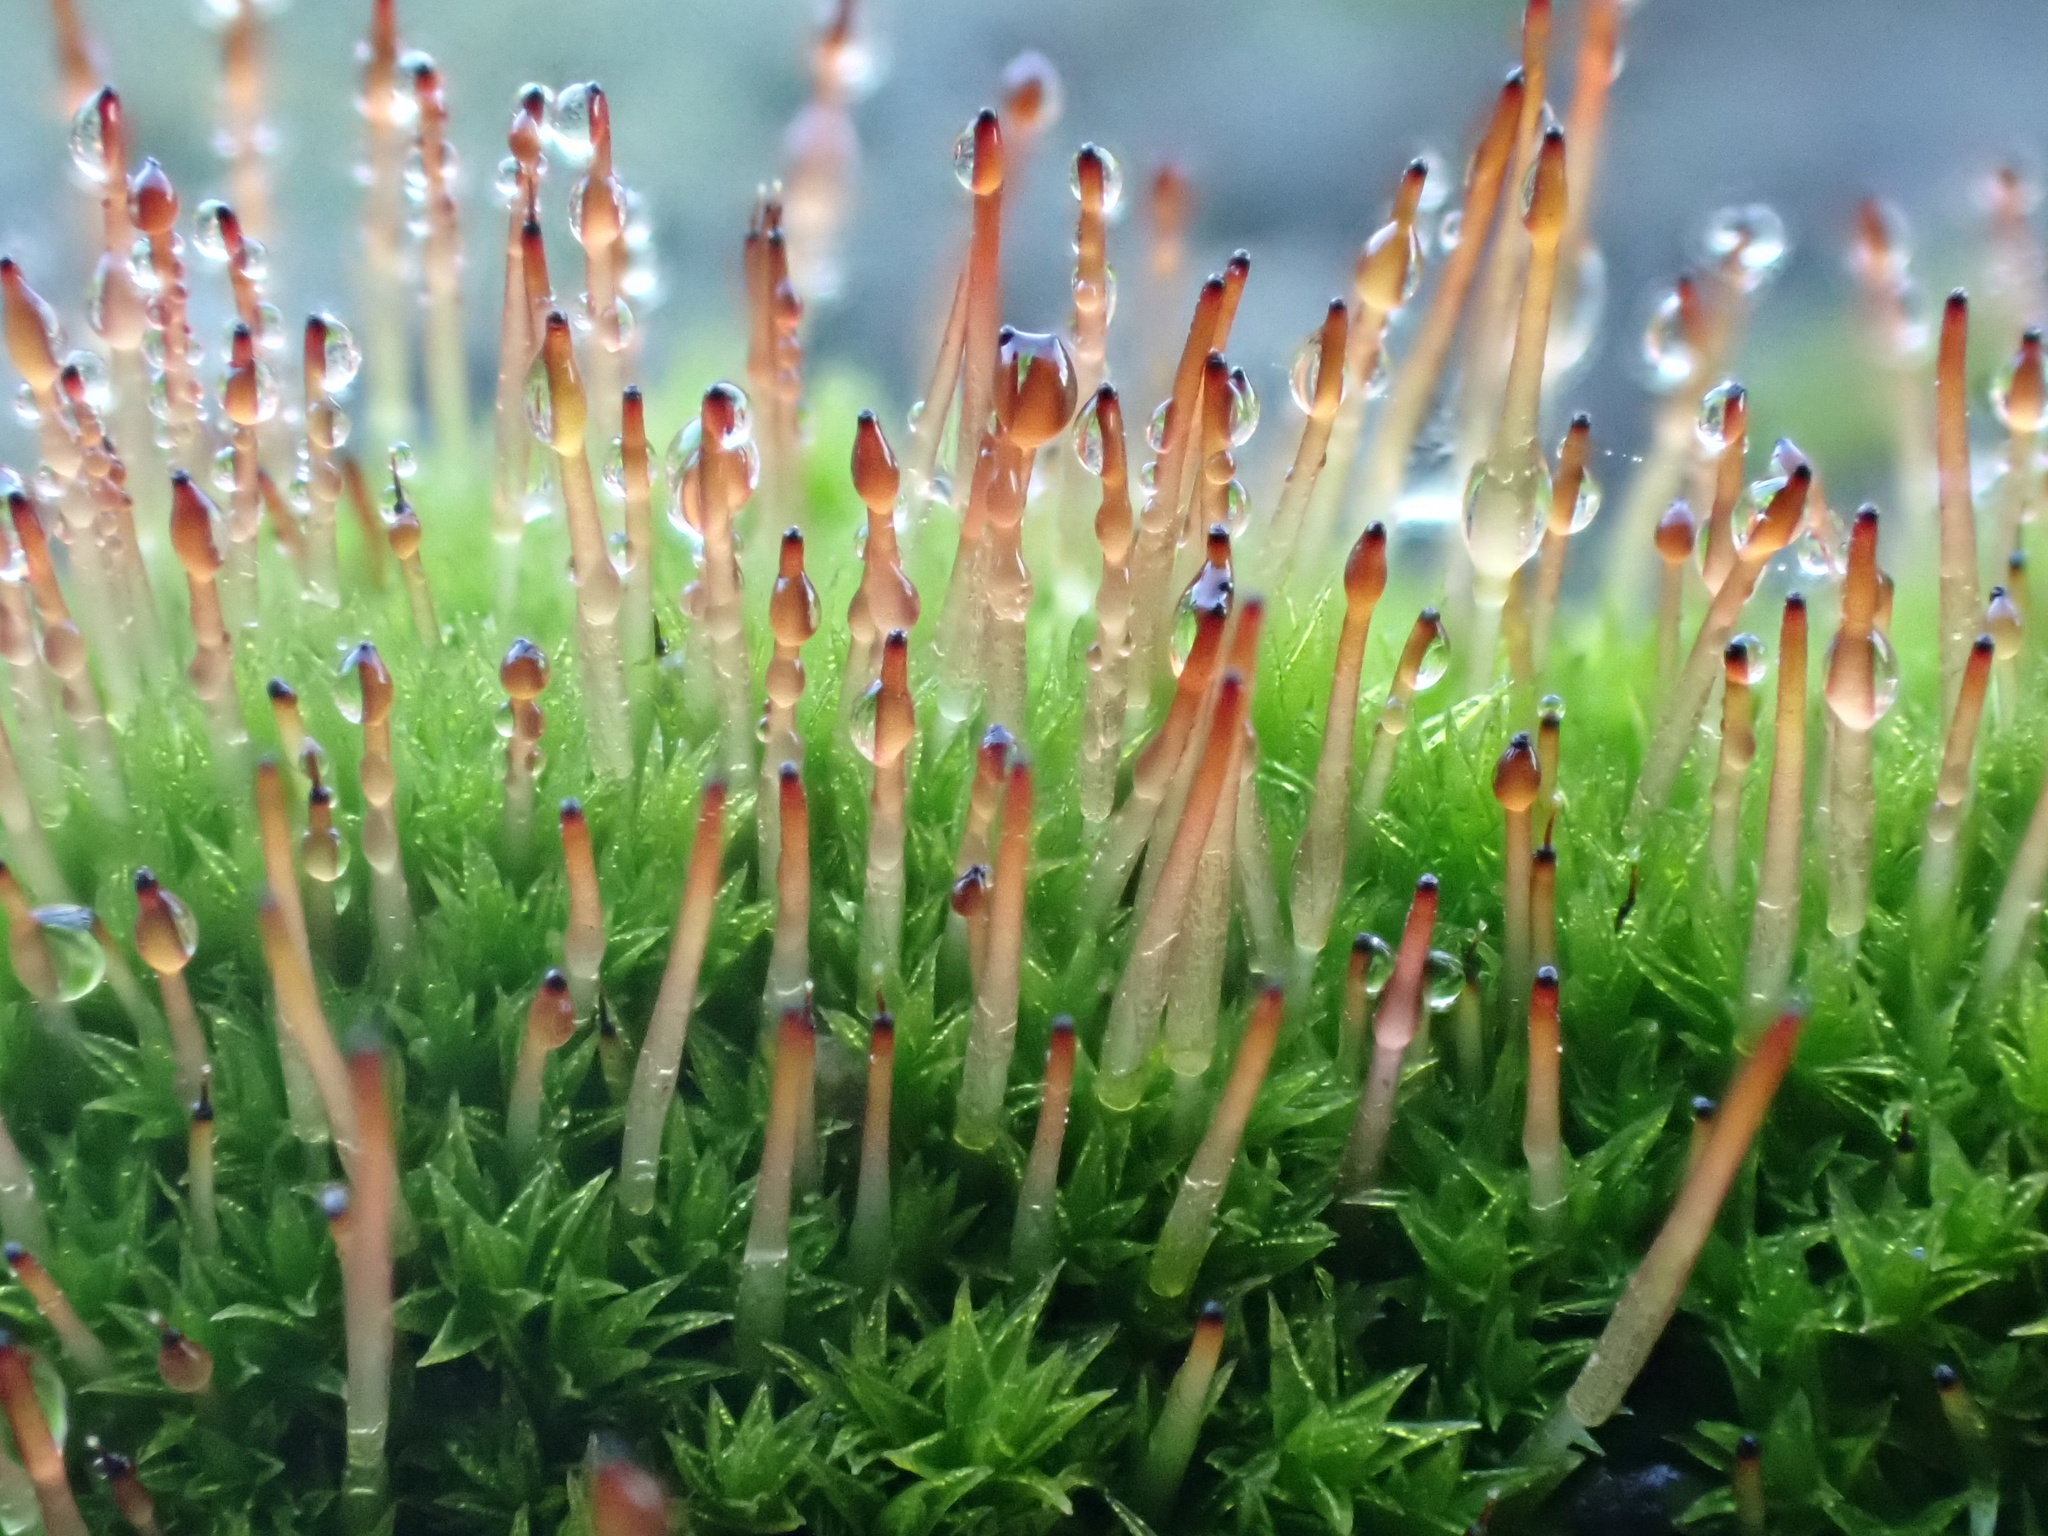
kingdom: Plantae
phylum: Bryophyta
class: Bryopsida
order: Dicranales
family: Ditrichaceae
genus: Ceratodon
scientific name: Ceratodon purpureus
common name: Redshank
